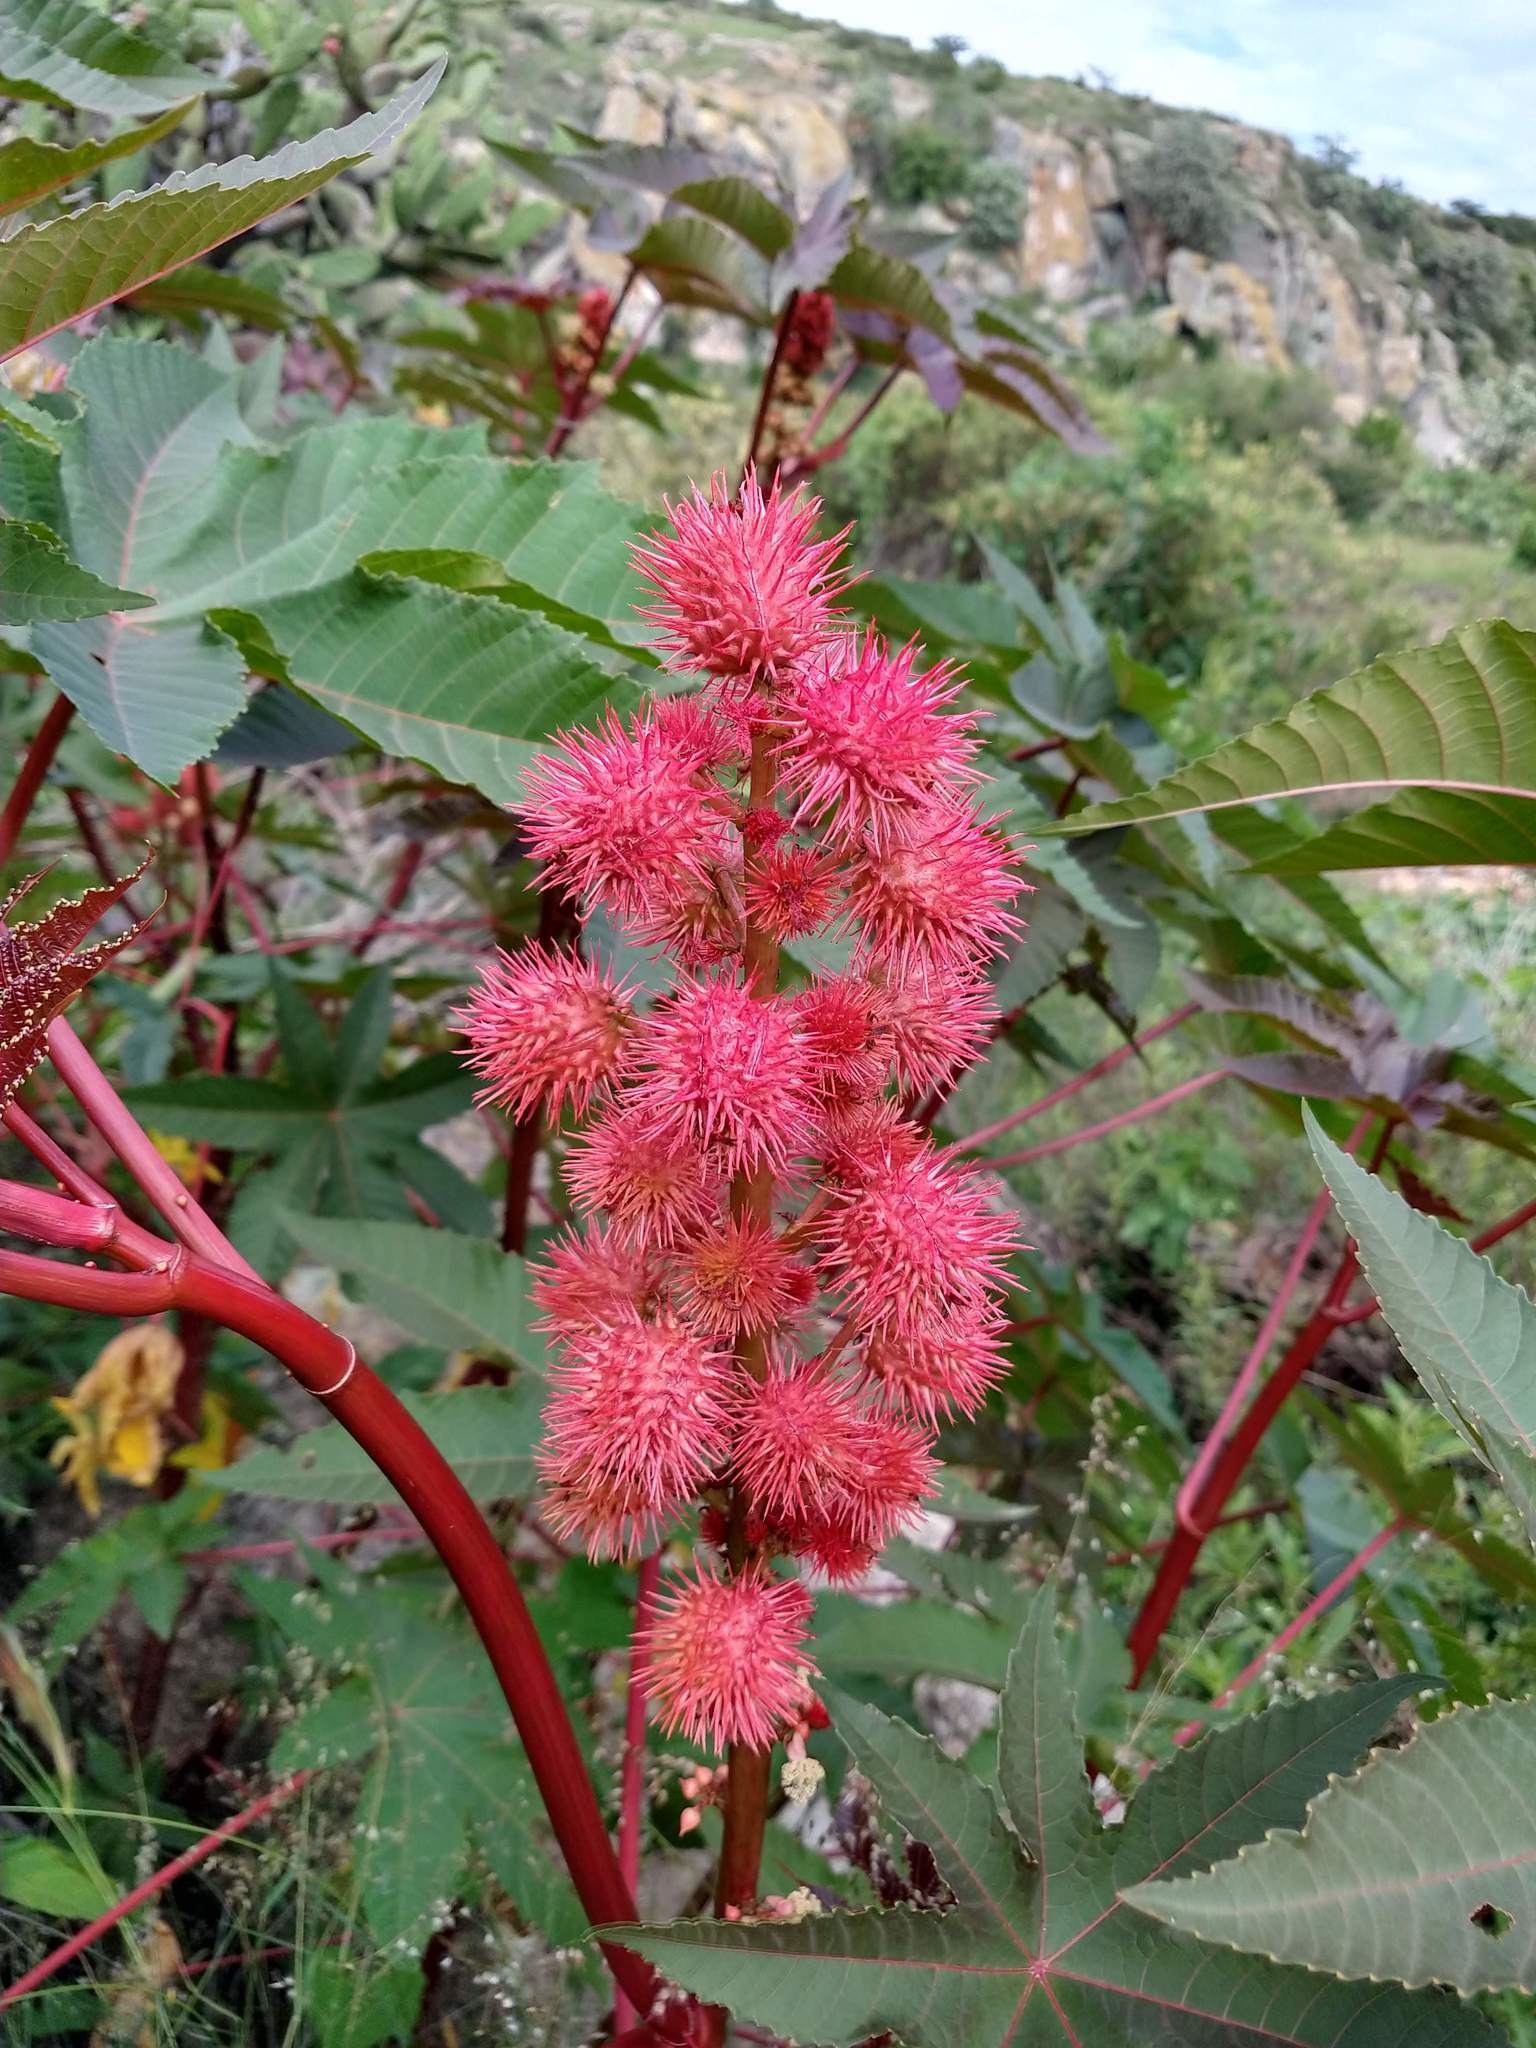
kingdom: Plantae
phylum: Tracheophyta
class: Magnoliopsida
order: Malpighiales
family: Euphorbiaceae
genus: Ricinus
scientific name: Ricinus communis
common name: Castor-oil-plant
